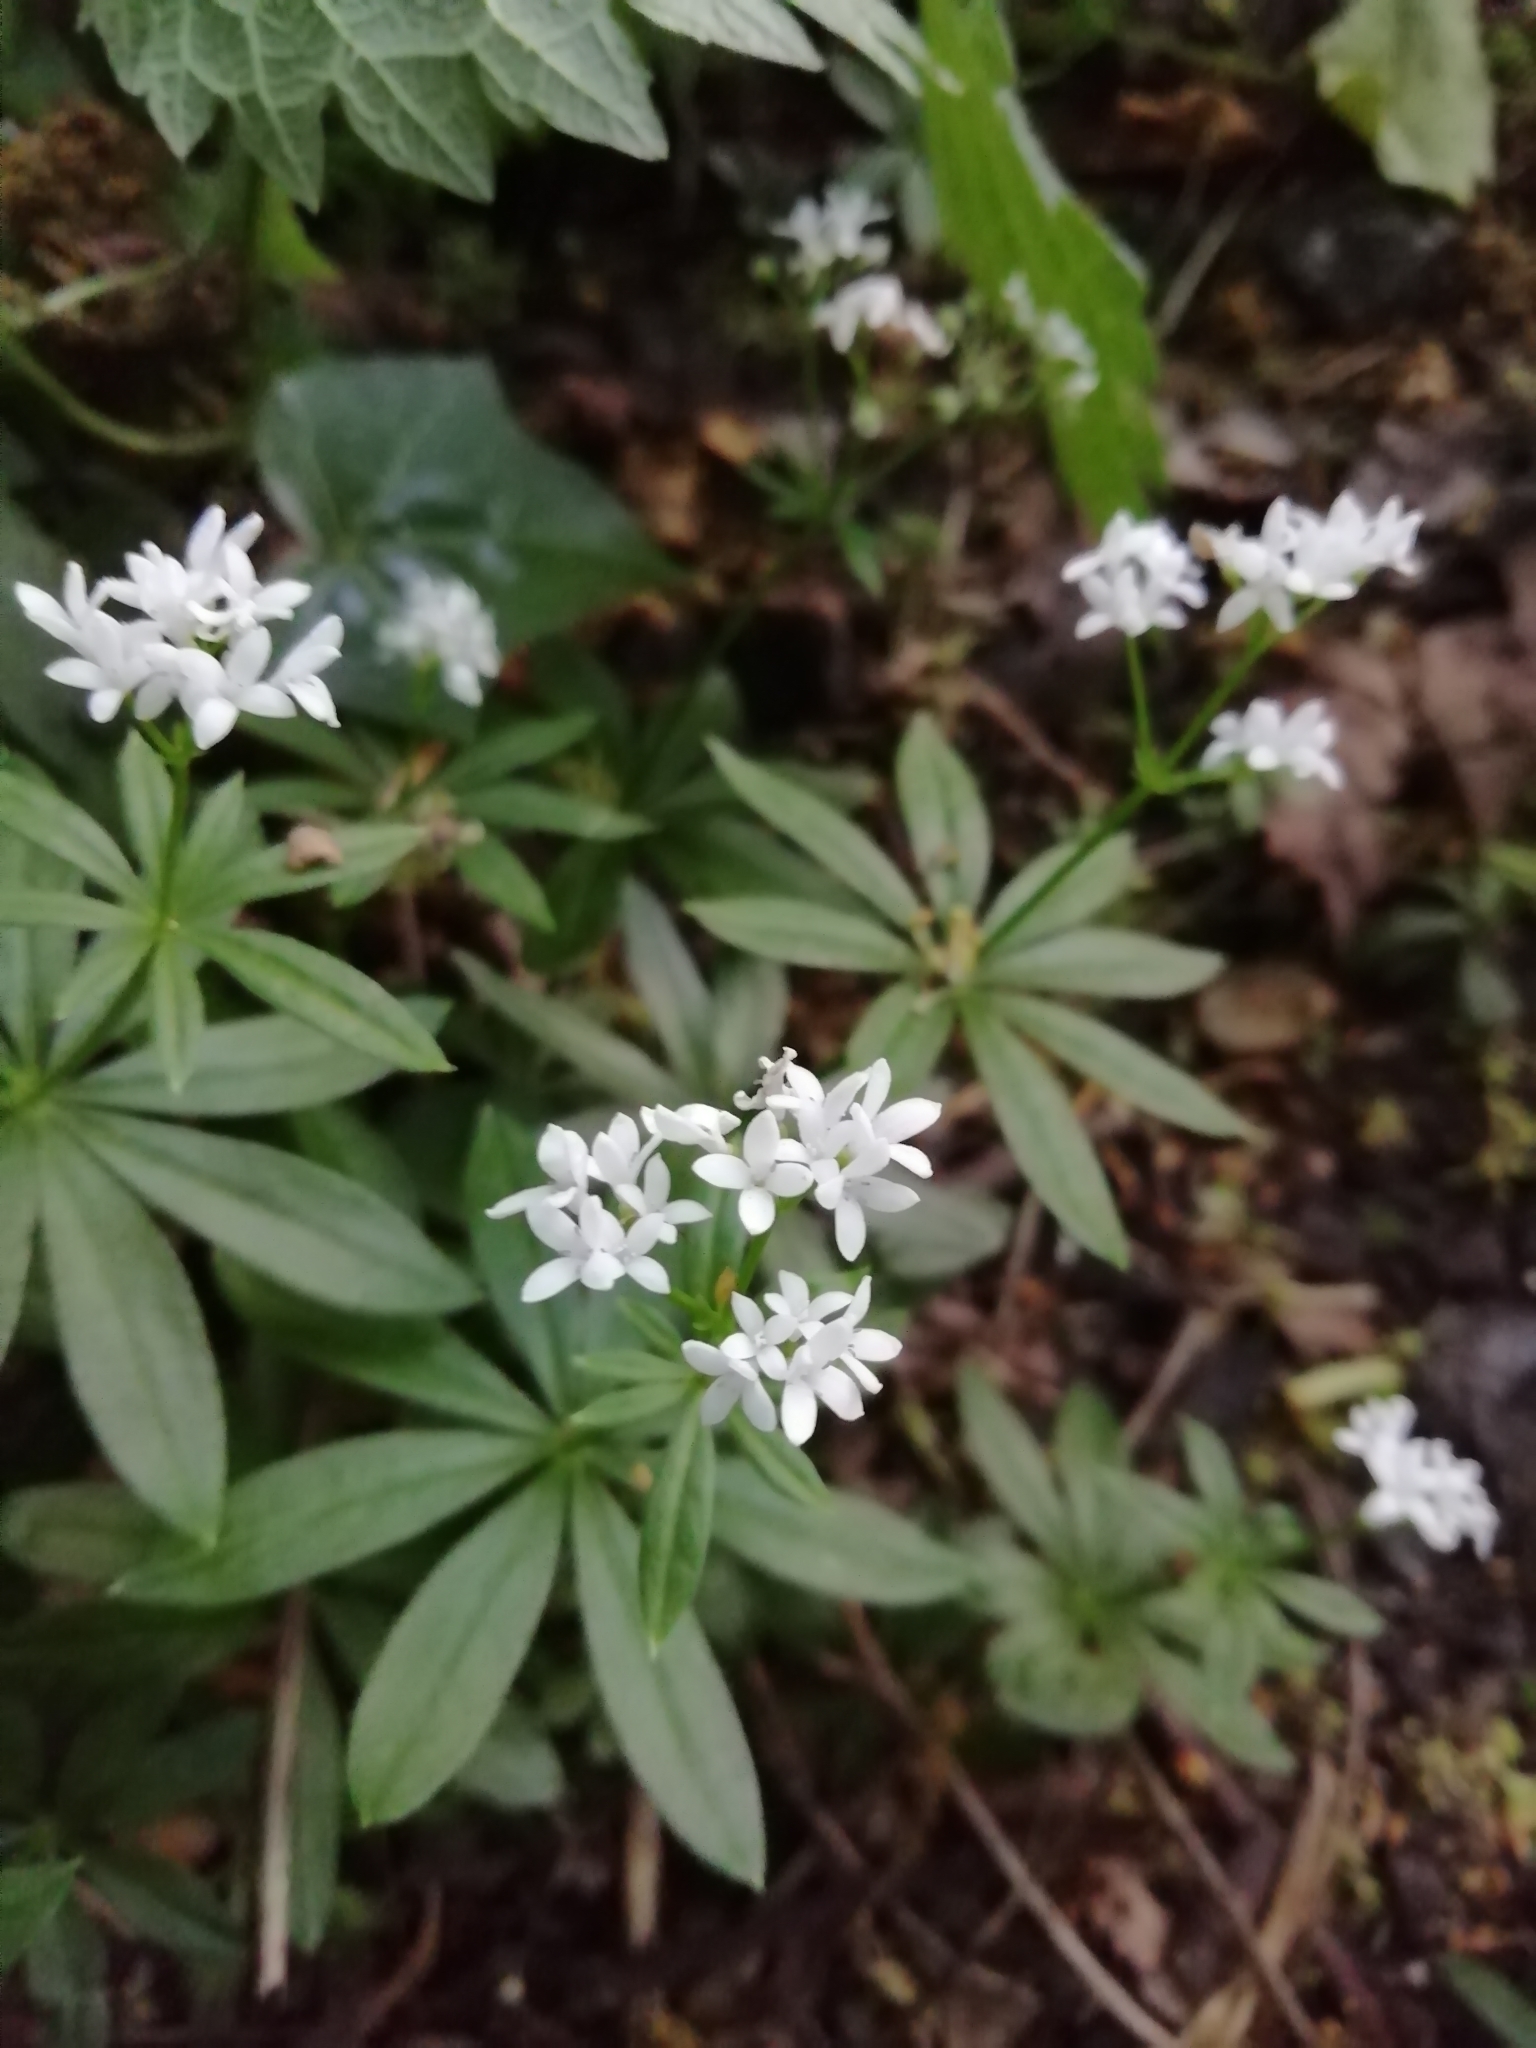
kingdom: Plantae
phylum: Tracheophyta
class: Magnoliopsida
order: Gentianales
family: Rubiaceae
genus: Galium
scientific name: Galium odoratum
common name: Sweet woodruff
